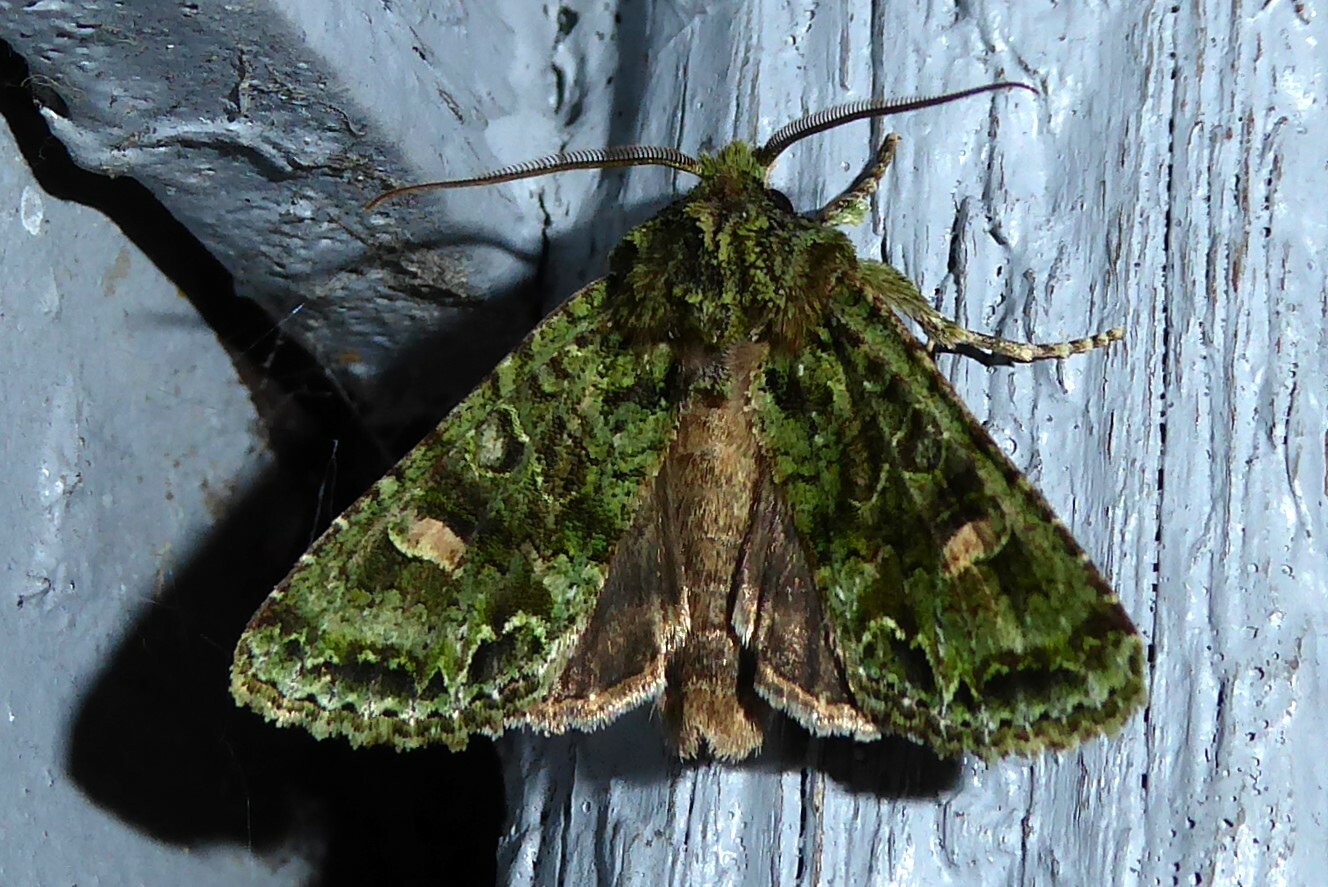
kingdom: Animalia
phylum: Arthropoda
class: Insecta
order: Lepidoptera
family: Noctuidae
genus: Ichneutica
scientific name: Ichneutica
